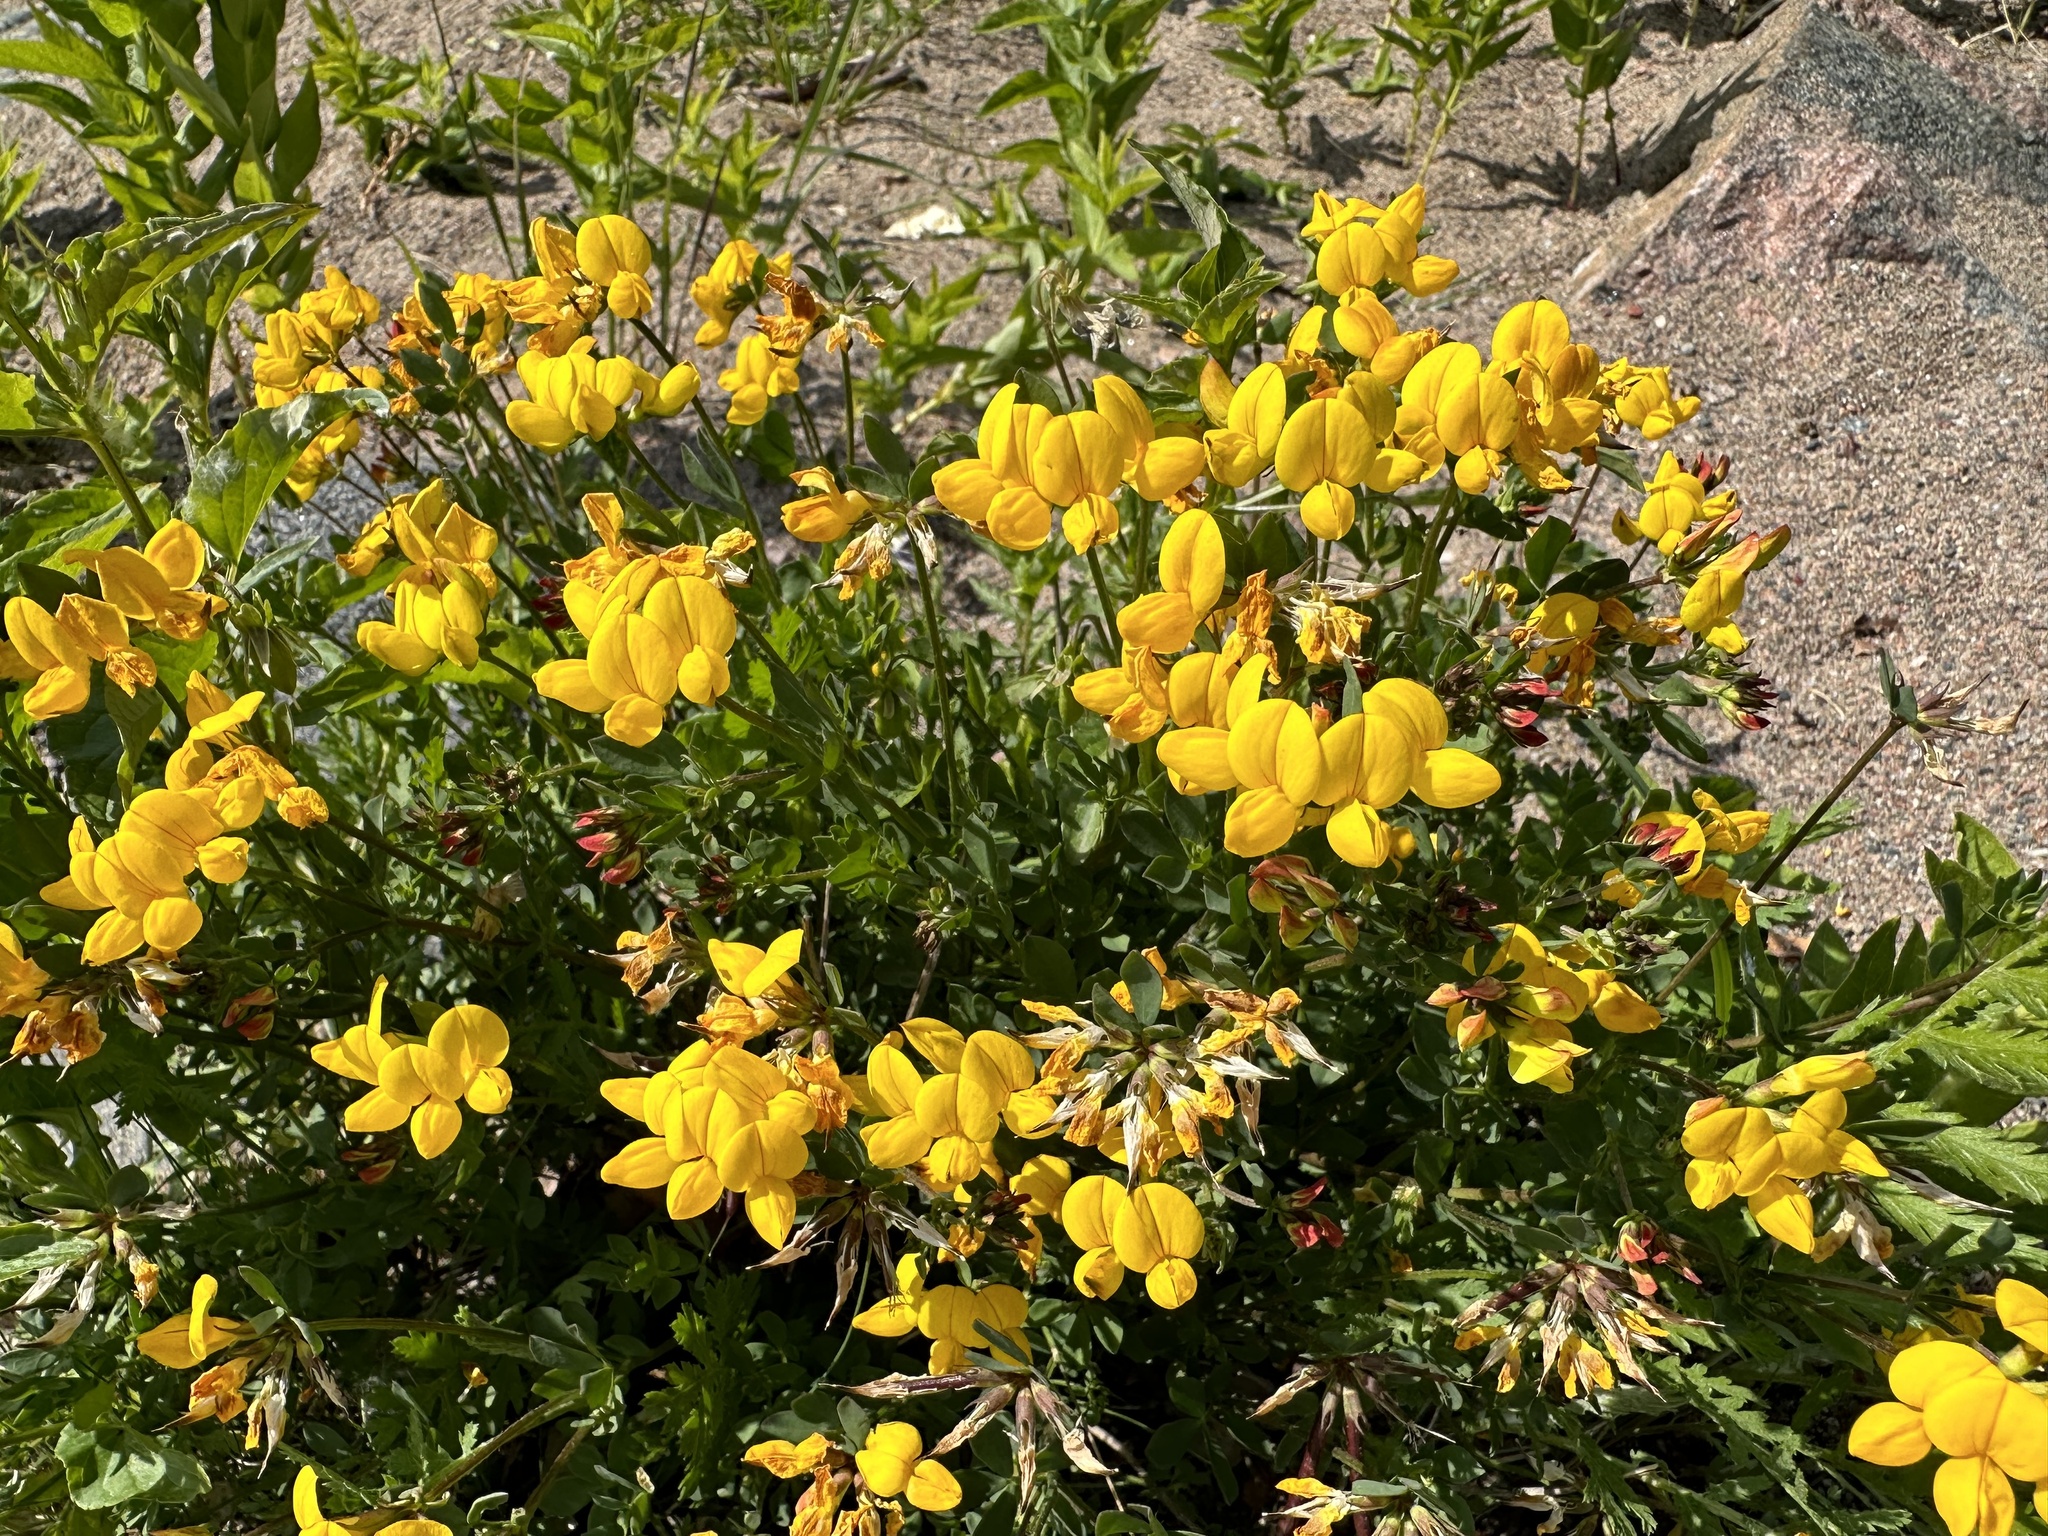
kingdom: Plantae
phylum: Tracheophyta
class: Magnoliopsida
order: Fabales
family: Fabaceae
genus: Lotus
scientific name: Lotus corniculatus
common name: Common bird's-foot-trefoil
